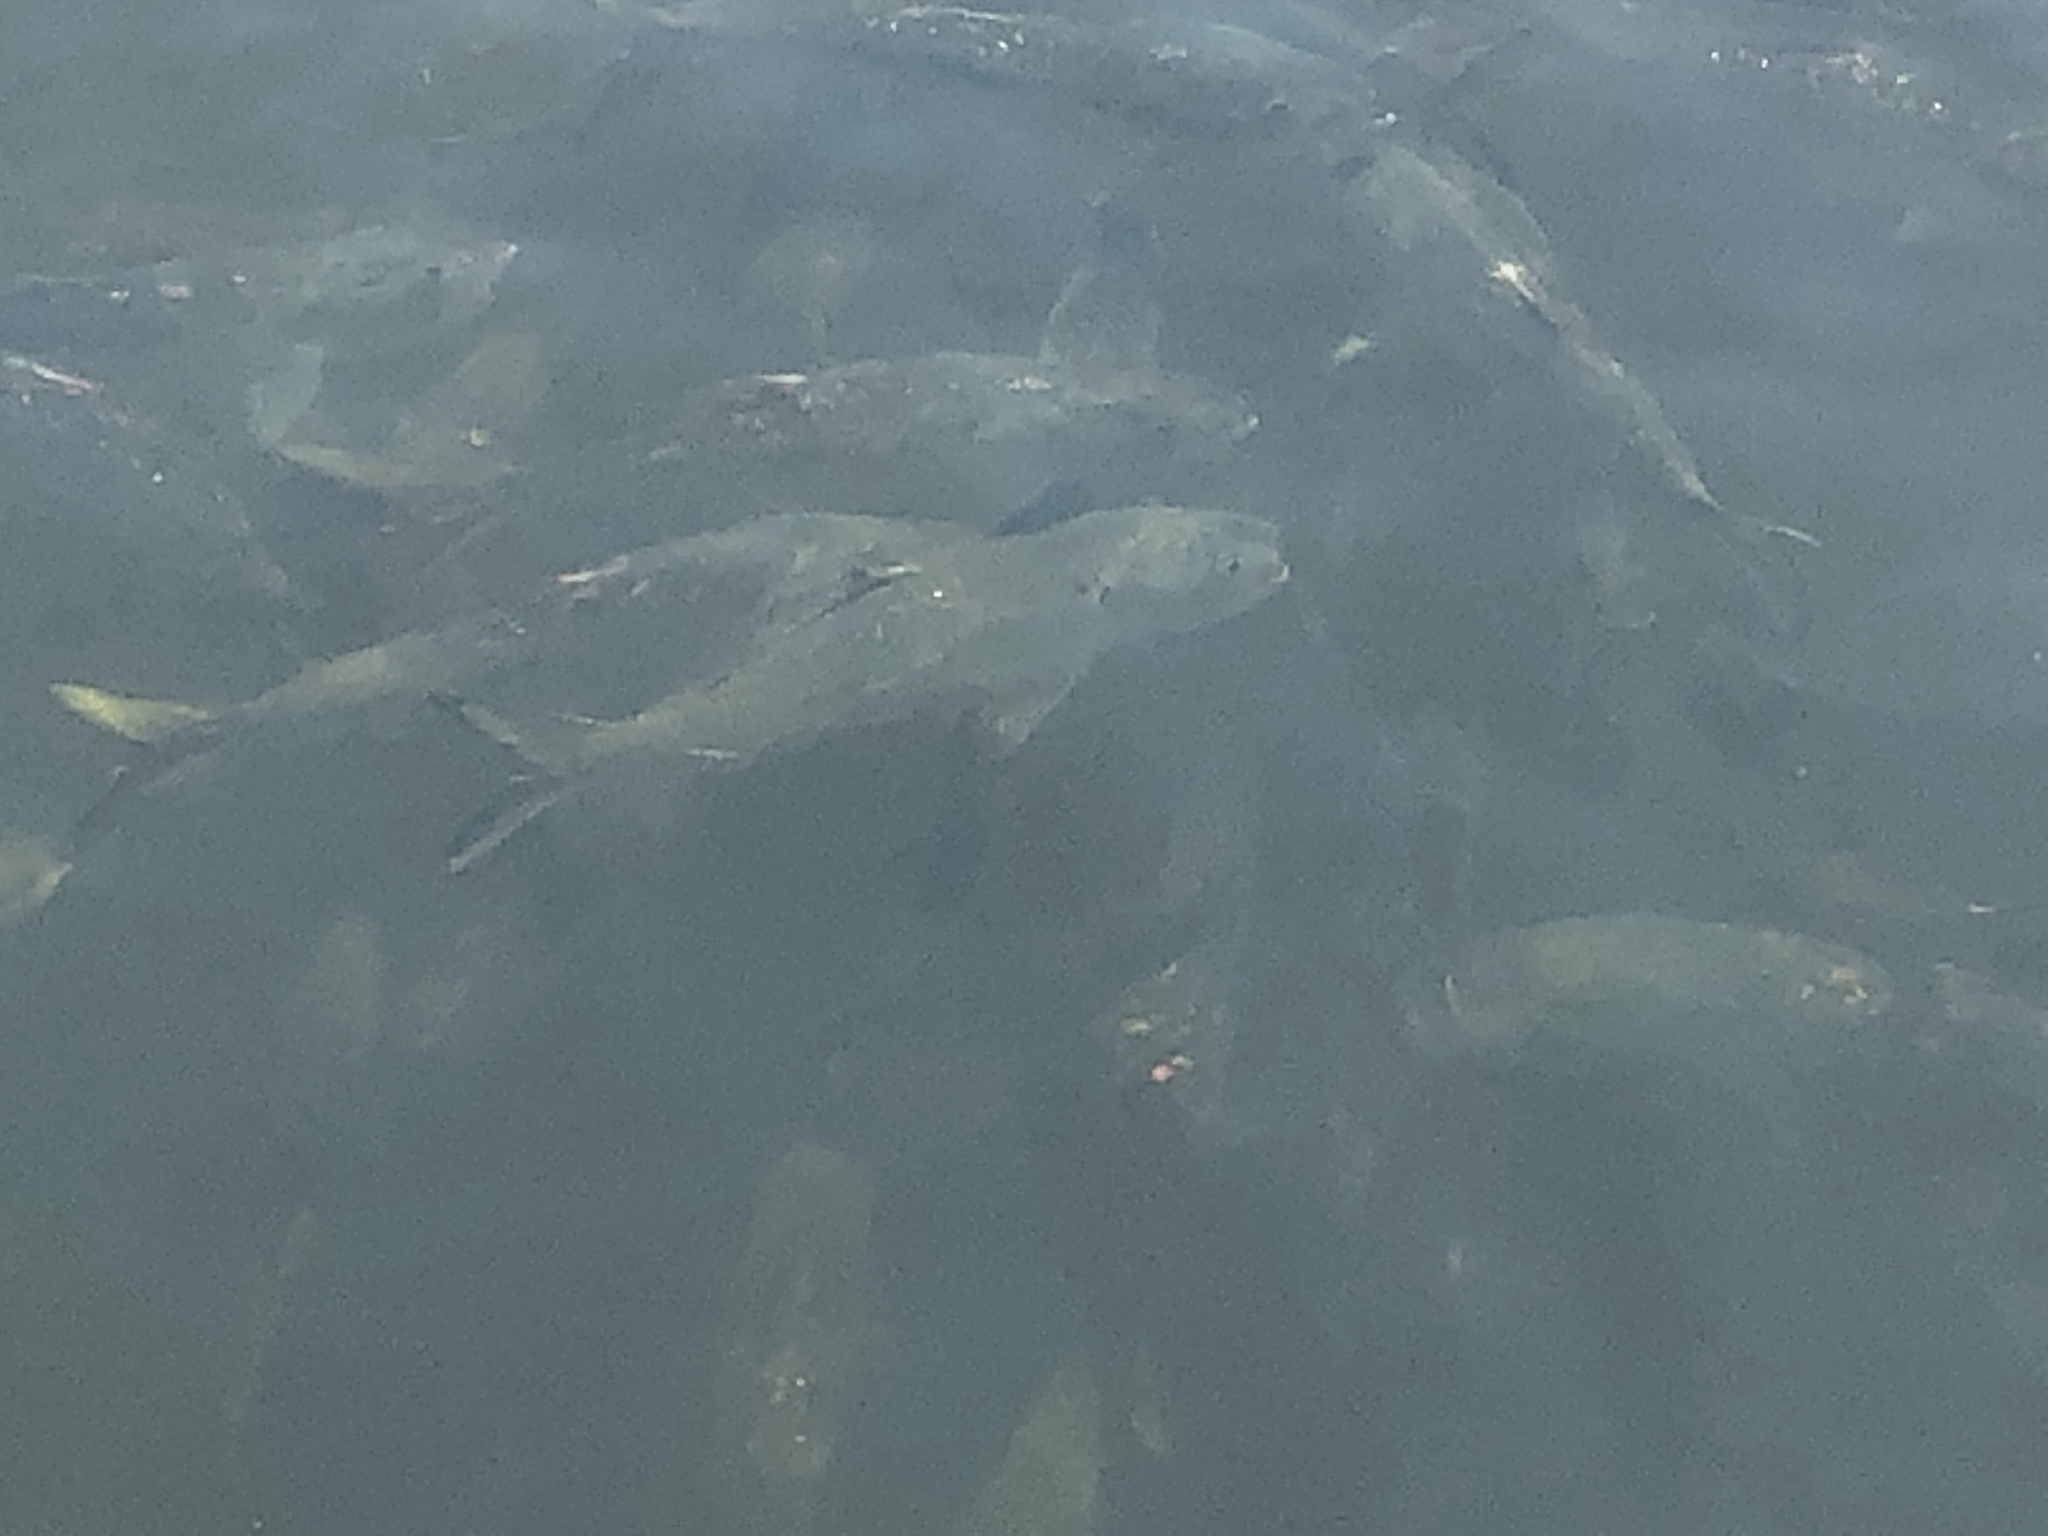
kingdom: Animalia
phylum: Chordata
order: Clupeiformes
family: Clupeidae
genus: Brevoortia
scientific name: Brevoortia tyrannus
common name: Atlantic menhaden
